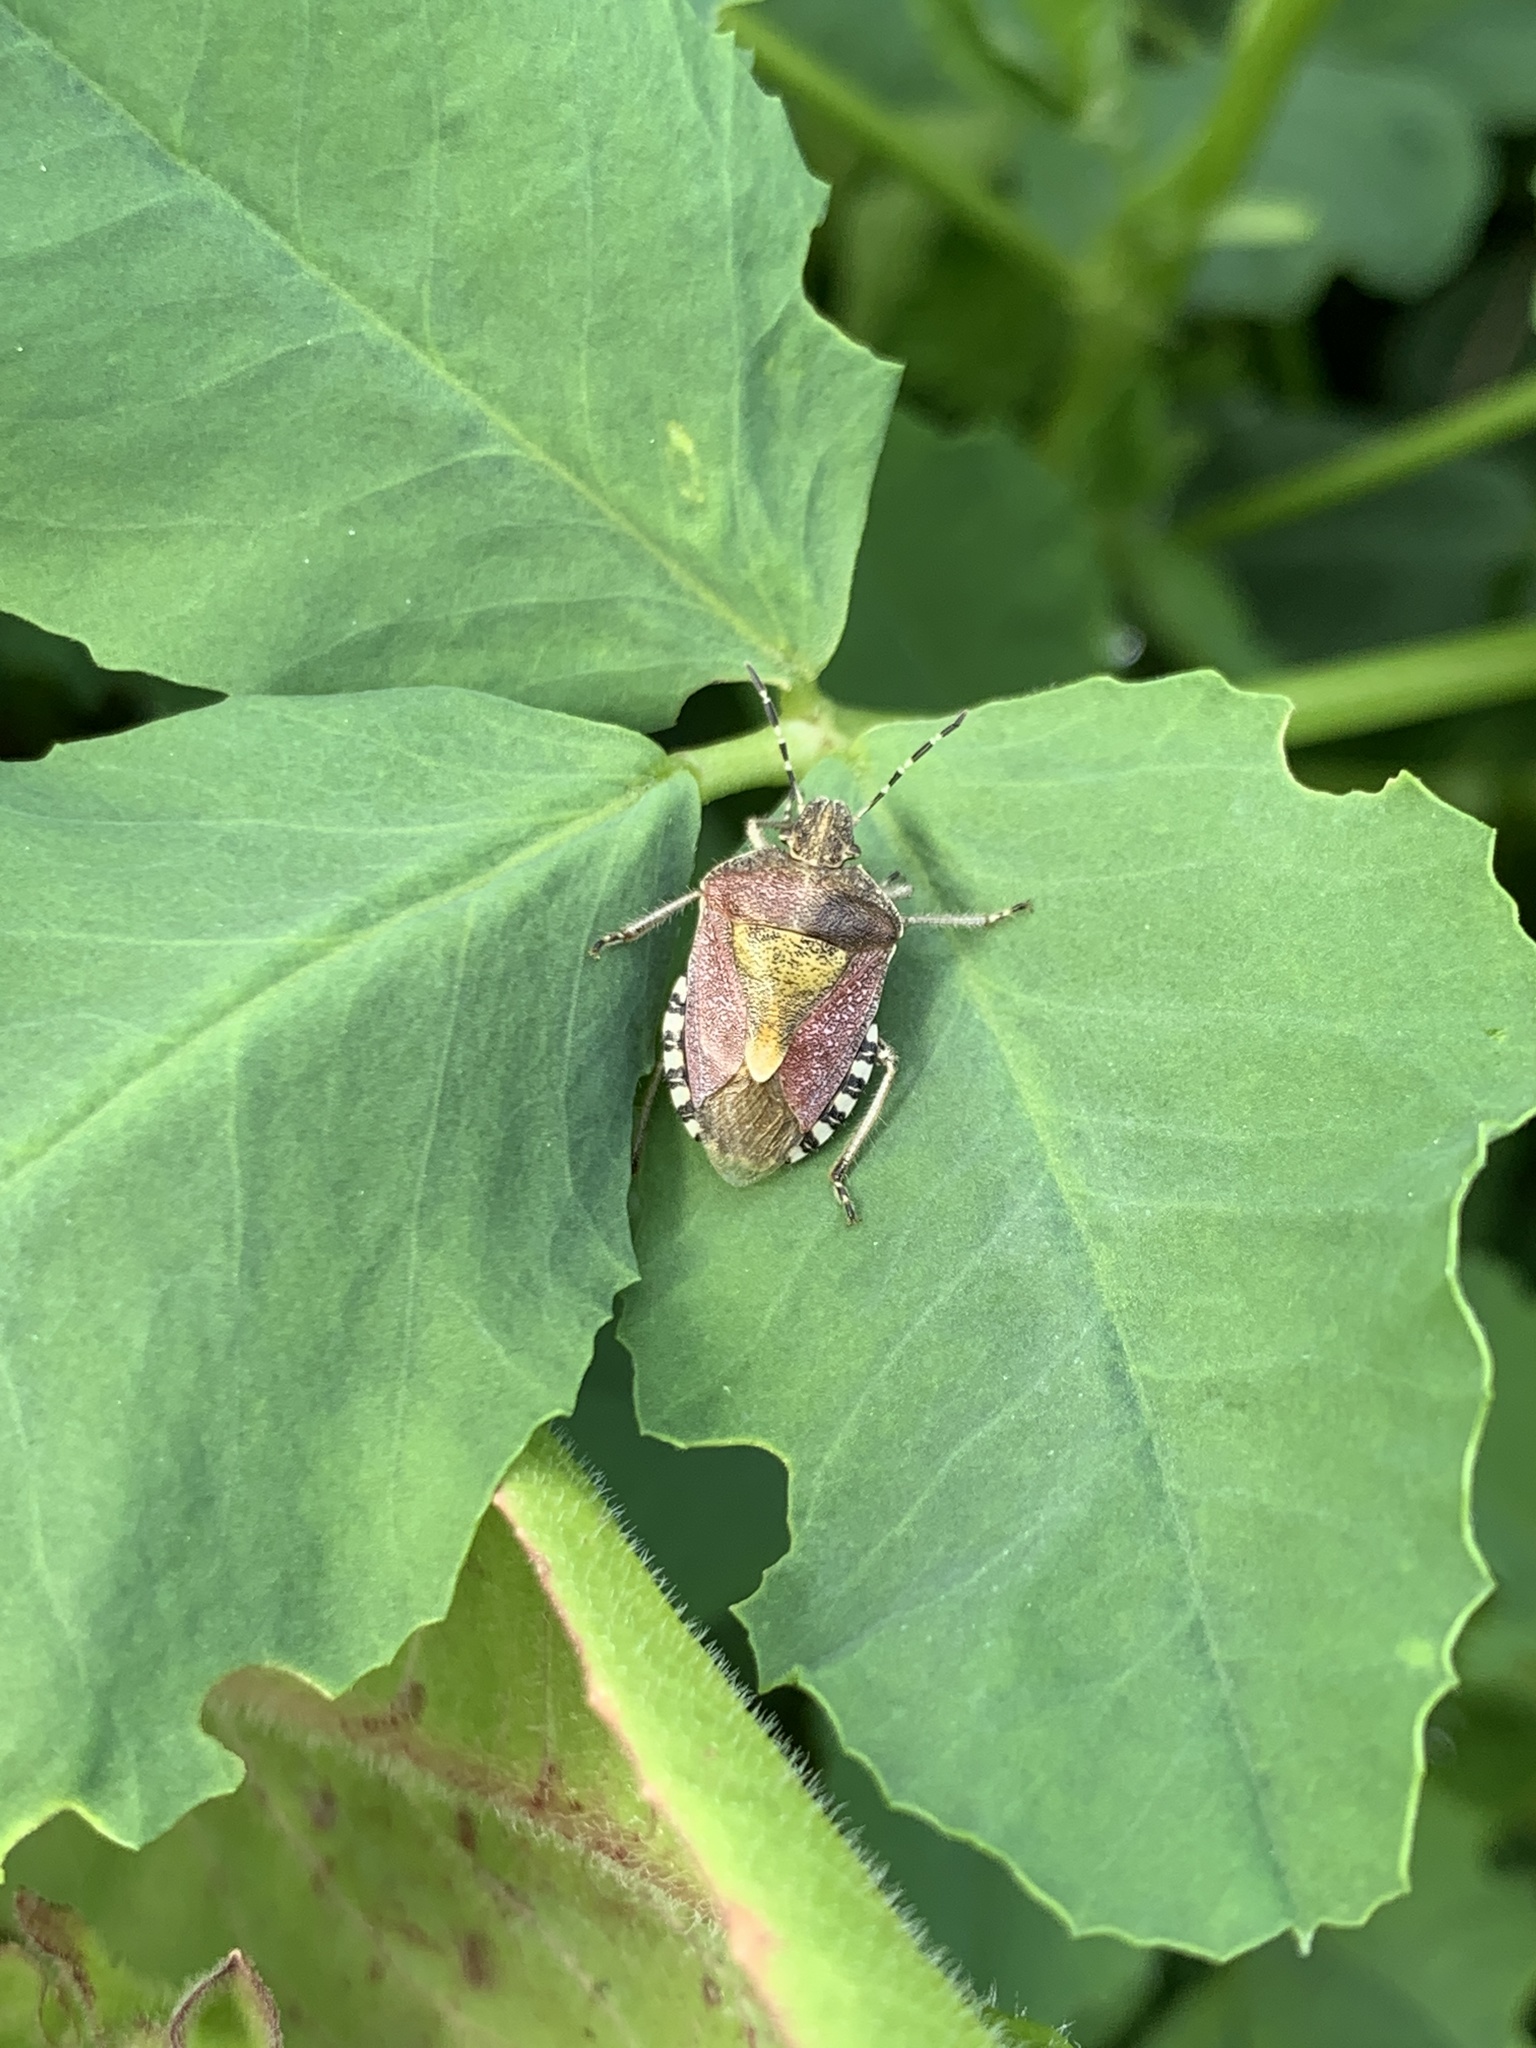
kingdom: Animalia
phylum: Arthropoda
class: Insecta
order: Hemiptera
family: Pentatomidae
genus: Dolycoris
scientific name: Dolycoris baccarum
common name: Sloe bug
